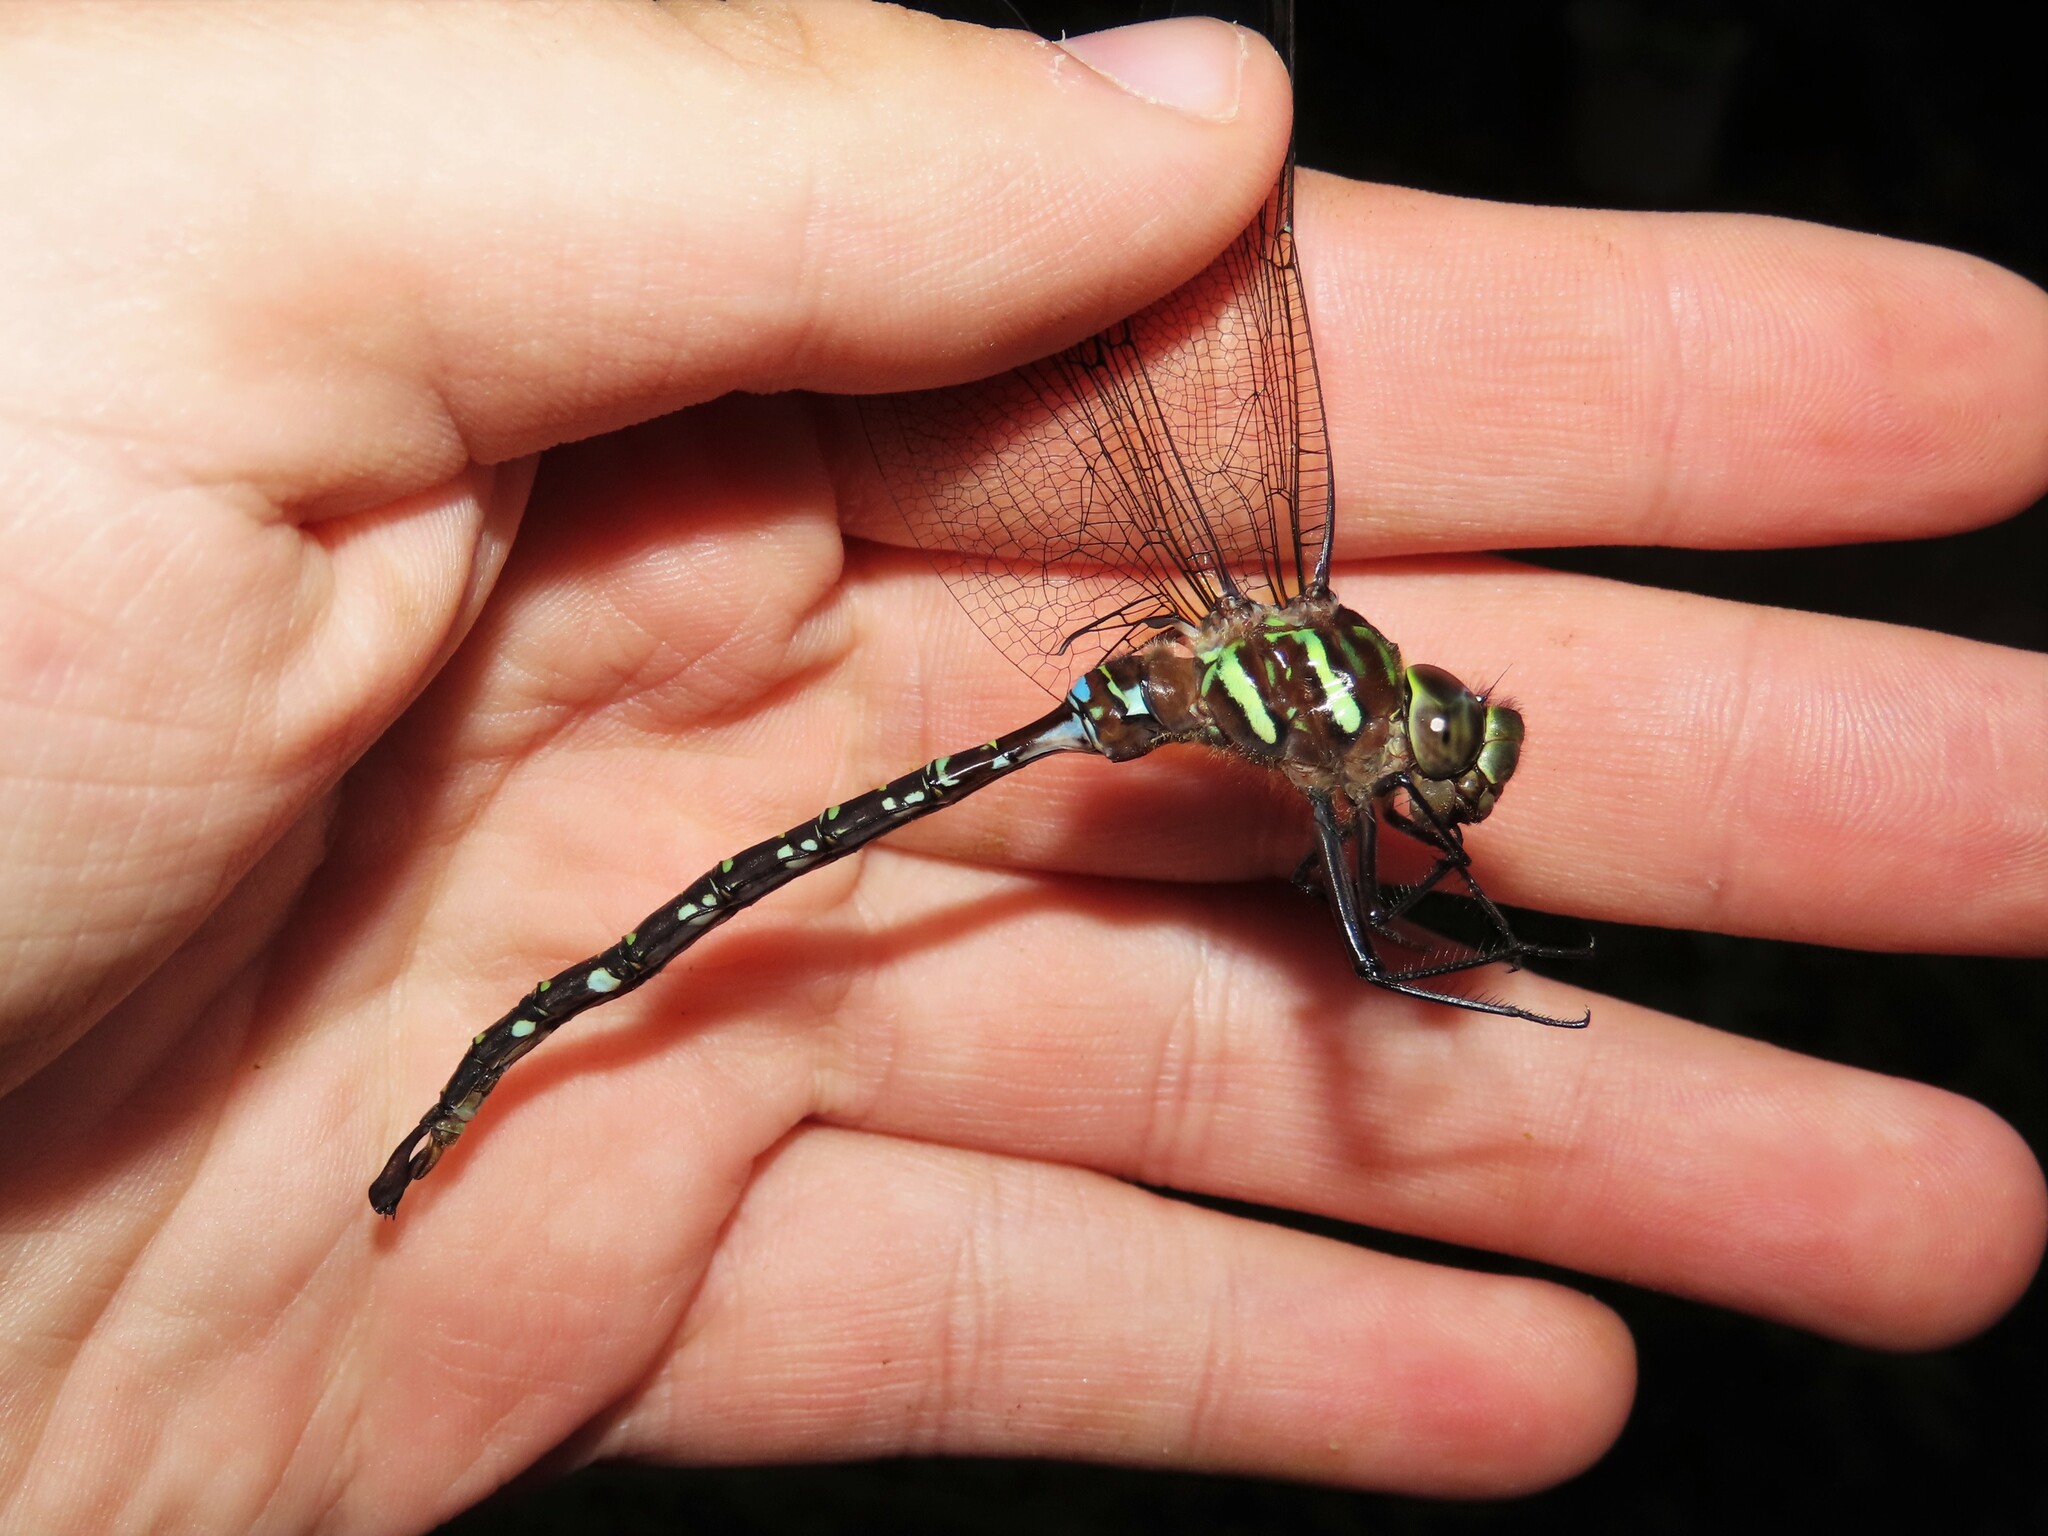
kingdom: Animalia
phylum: Arthropoda
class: Insecta
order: Odonata
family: Aeshnidae
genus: Aeshna
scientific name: Aeshna umbrosa
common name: Shadow darner
